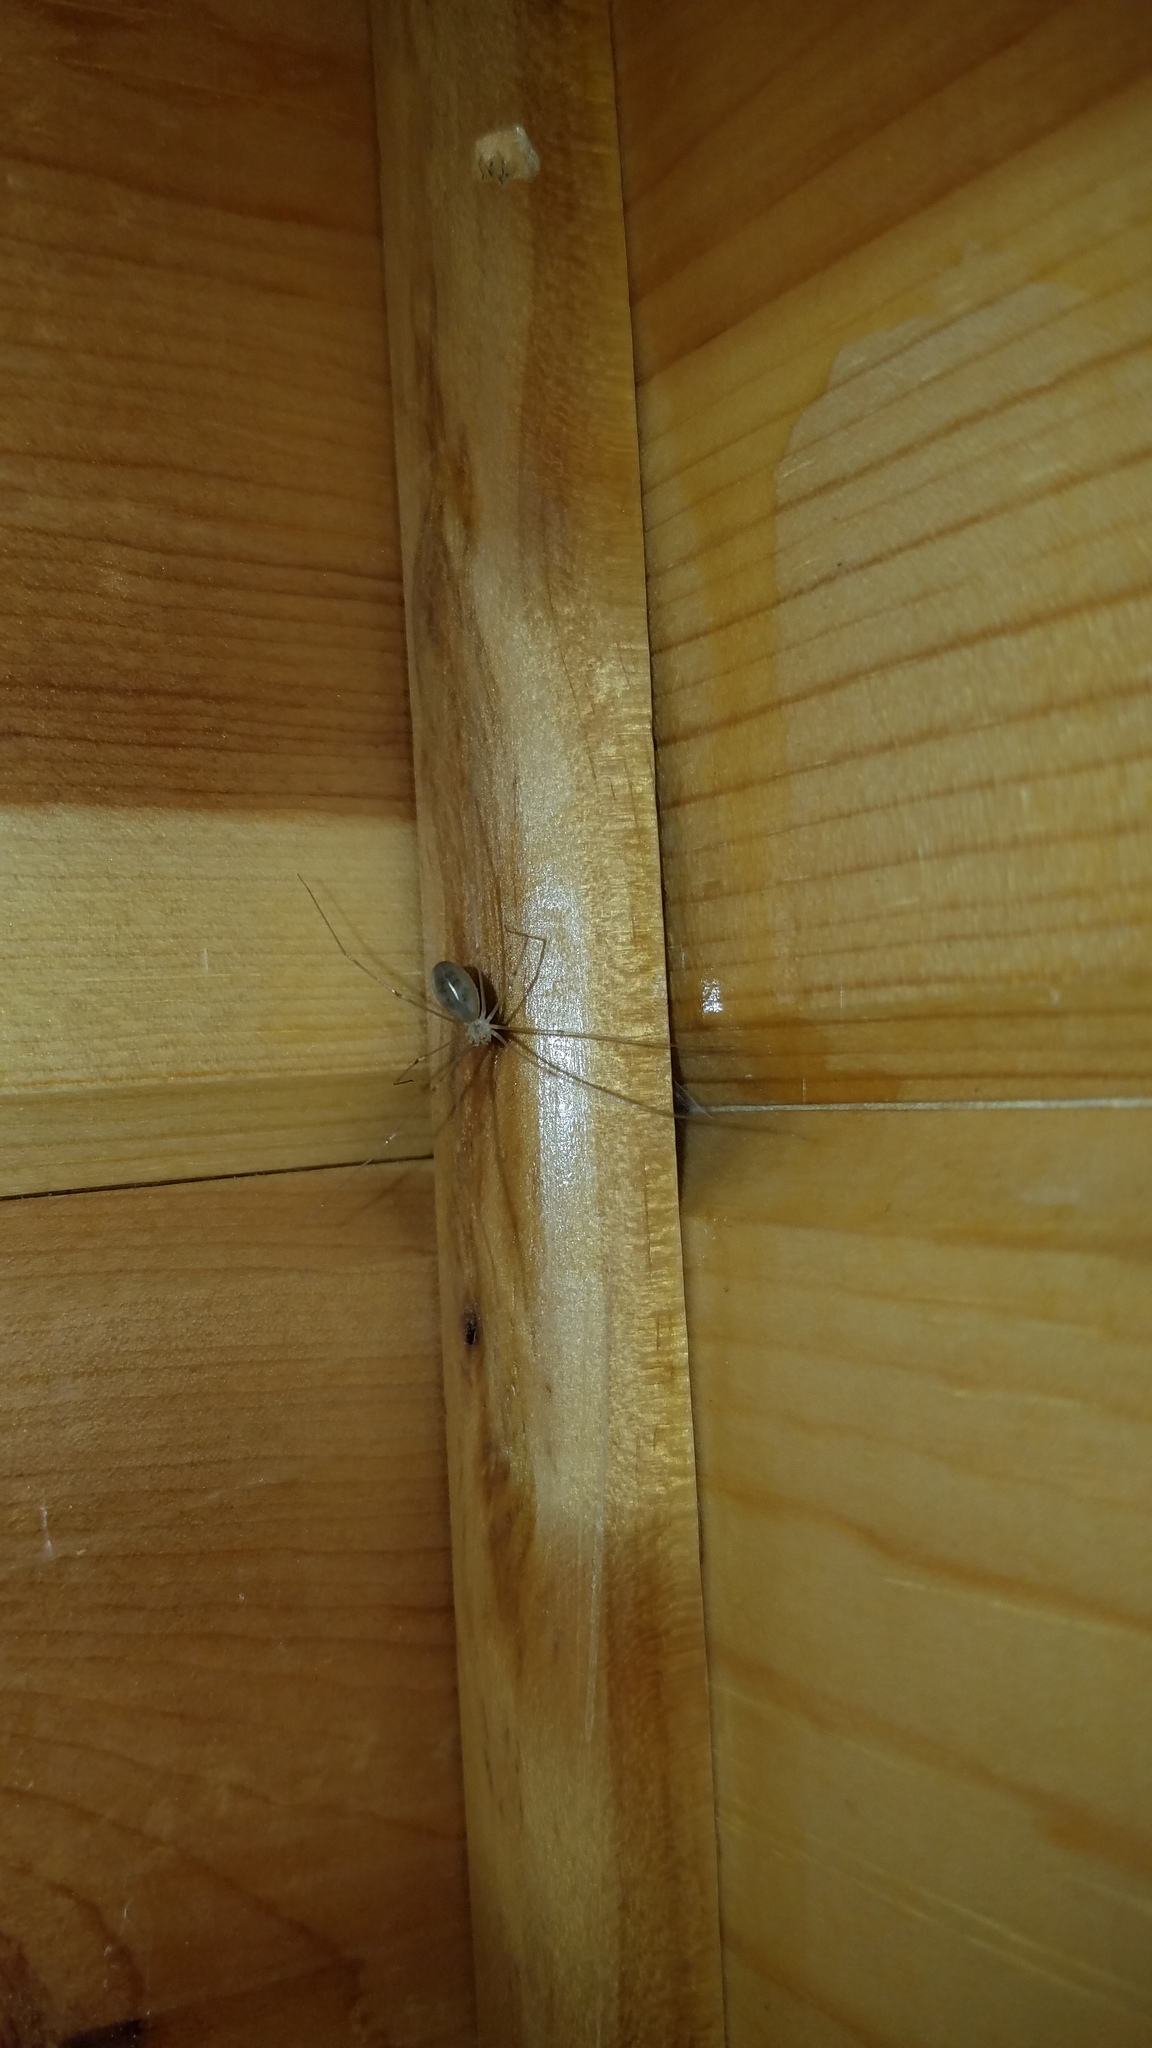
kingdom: Animalia
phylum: Arthropoda
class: Arachnida
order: Araneae
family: Pholcidae
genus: Pholcus
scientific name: Pholcus phalangioides
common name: Longbodied cellar spider
